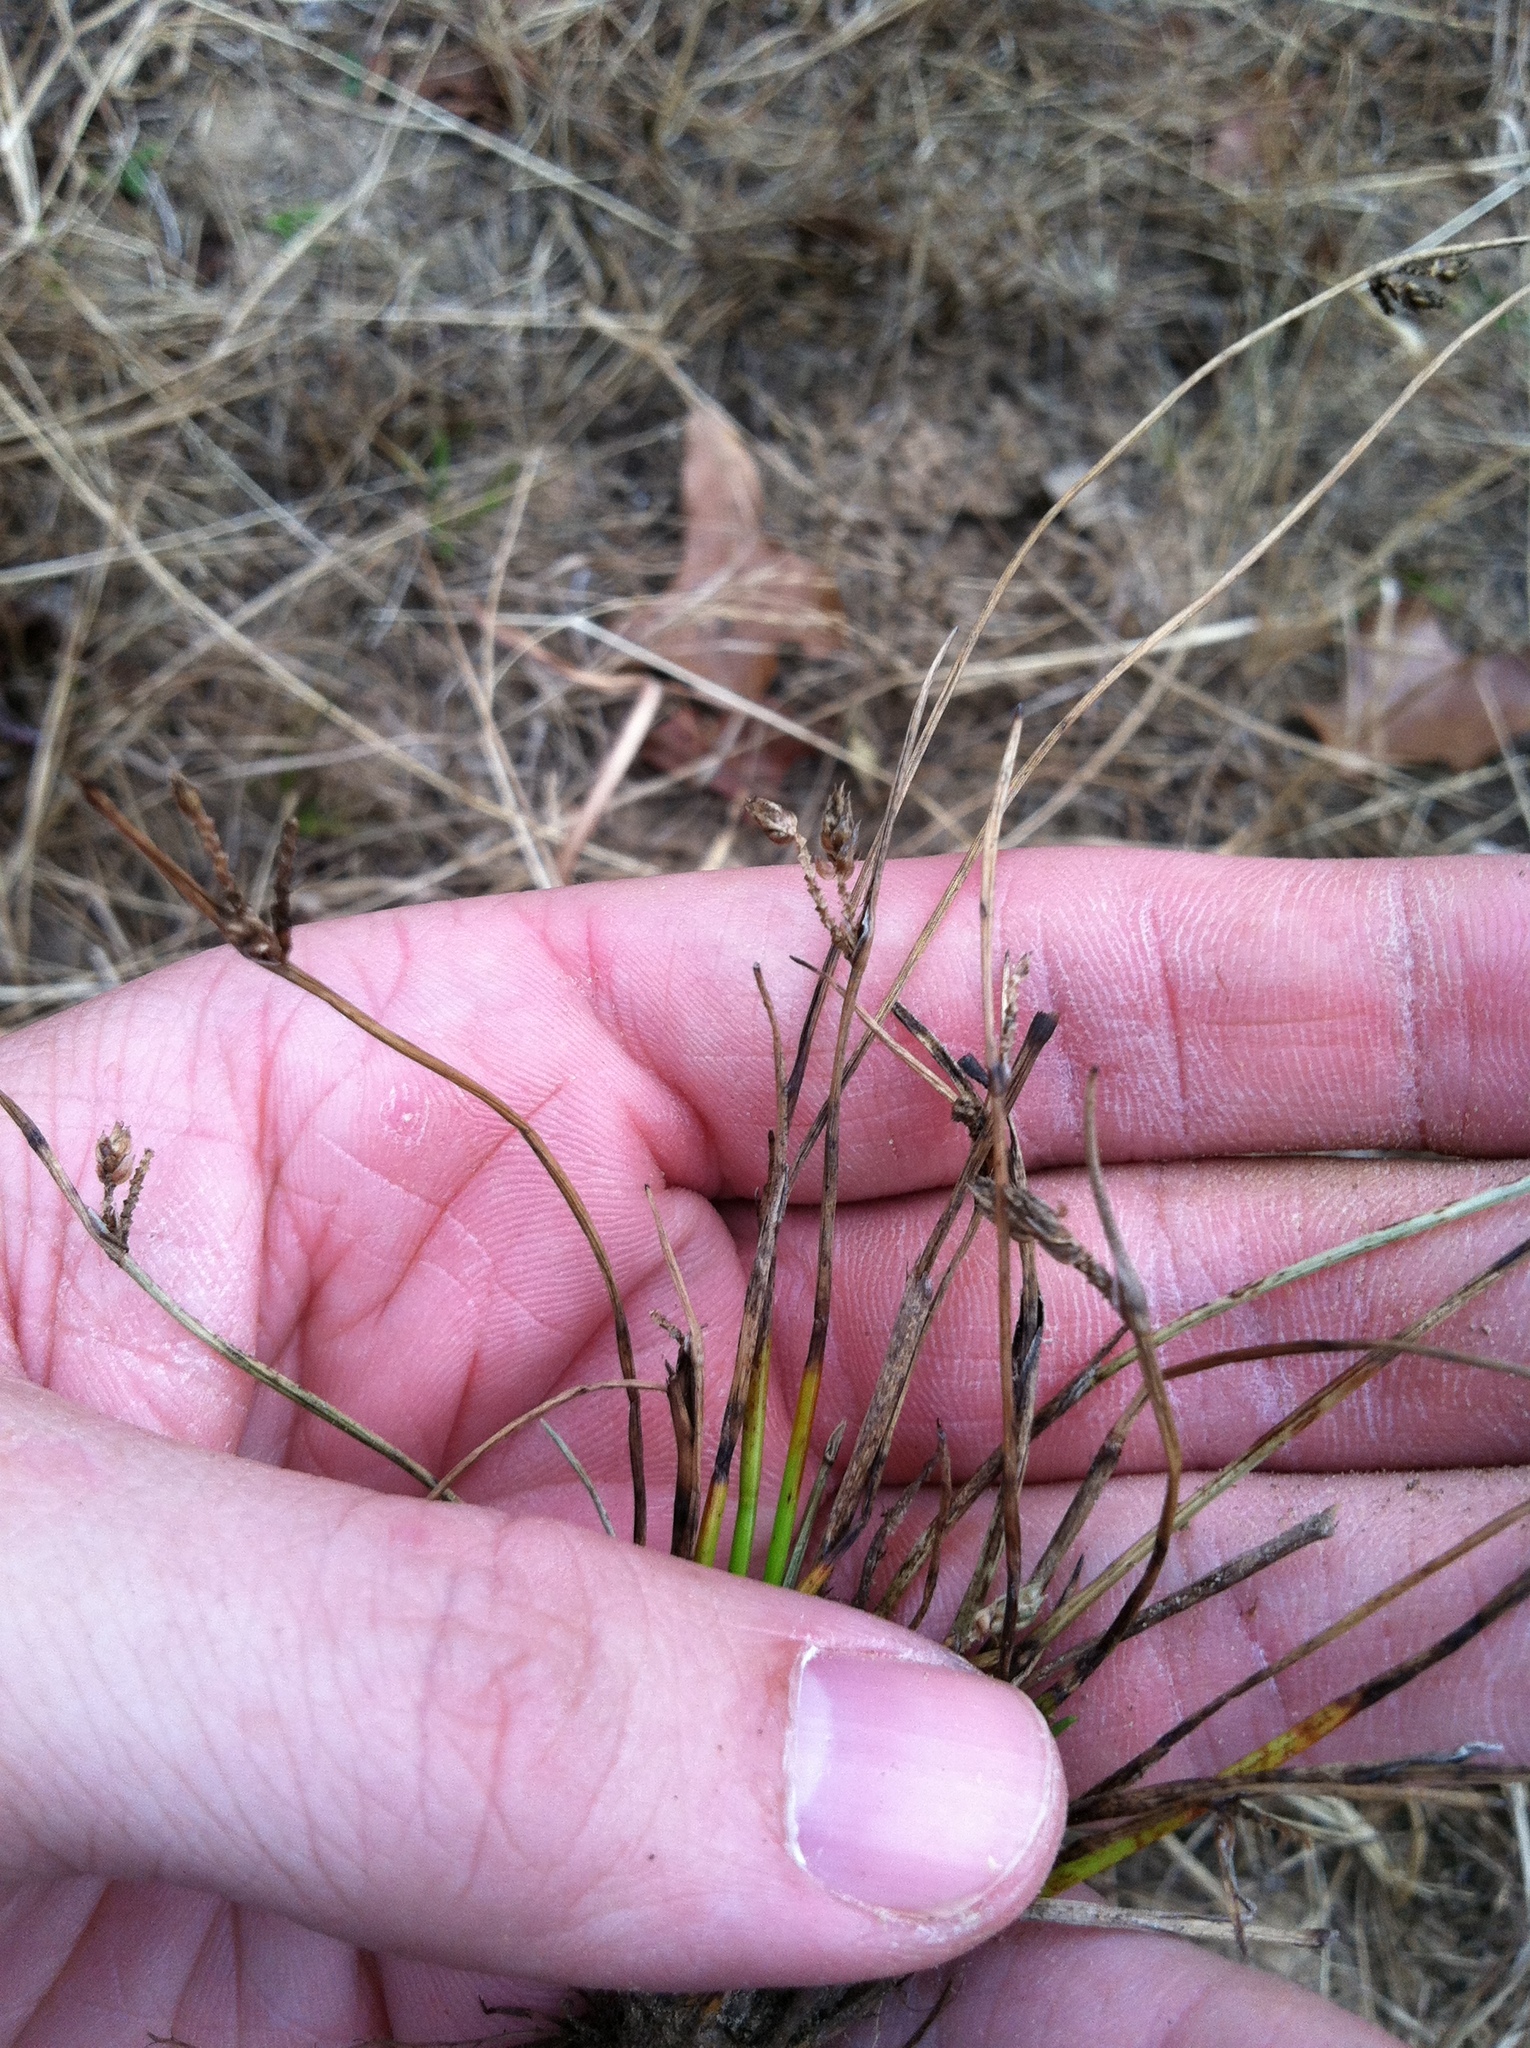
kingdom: Plantae
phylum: Tracheophyta
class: Liliopsida
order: Poales
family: Cyperaceae
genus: Schoenoplectiella
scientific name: Schoenoplectiella hallii
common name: Hall's bullrush
